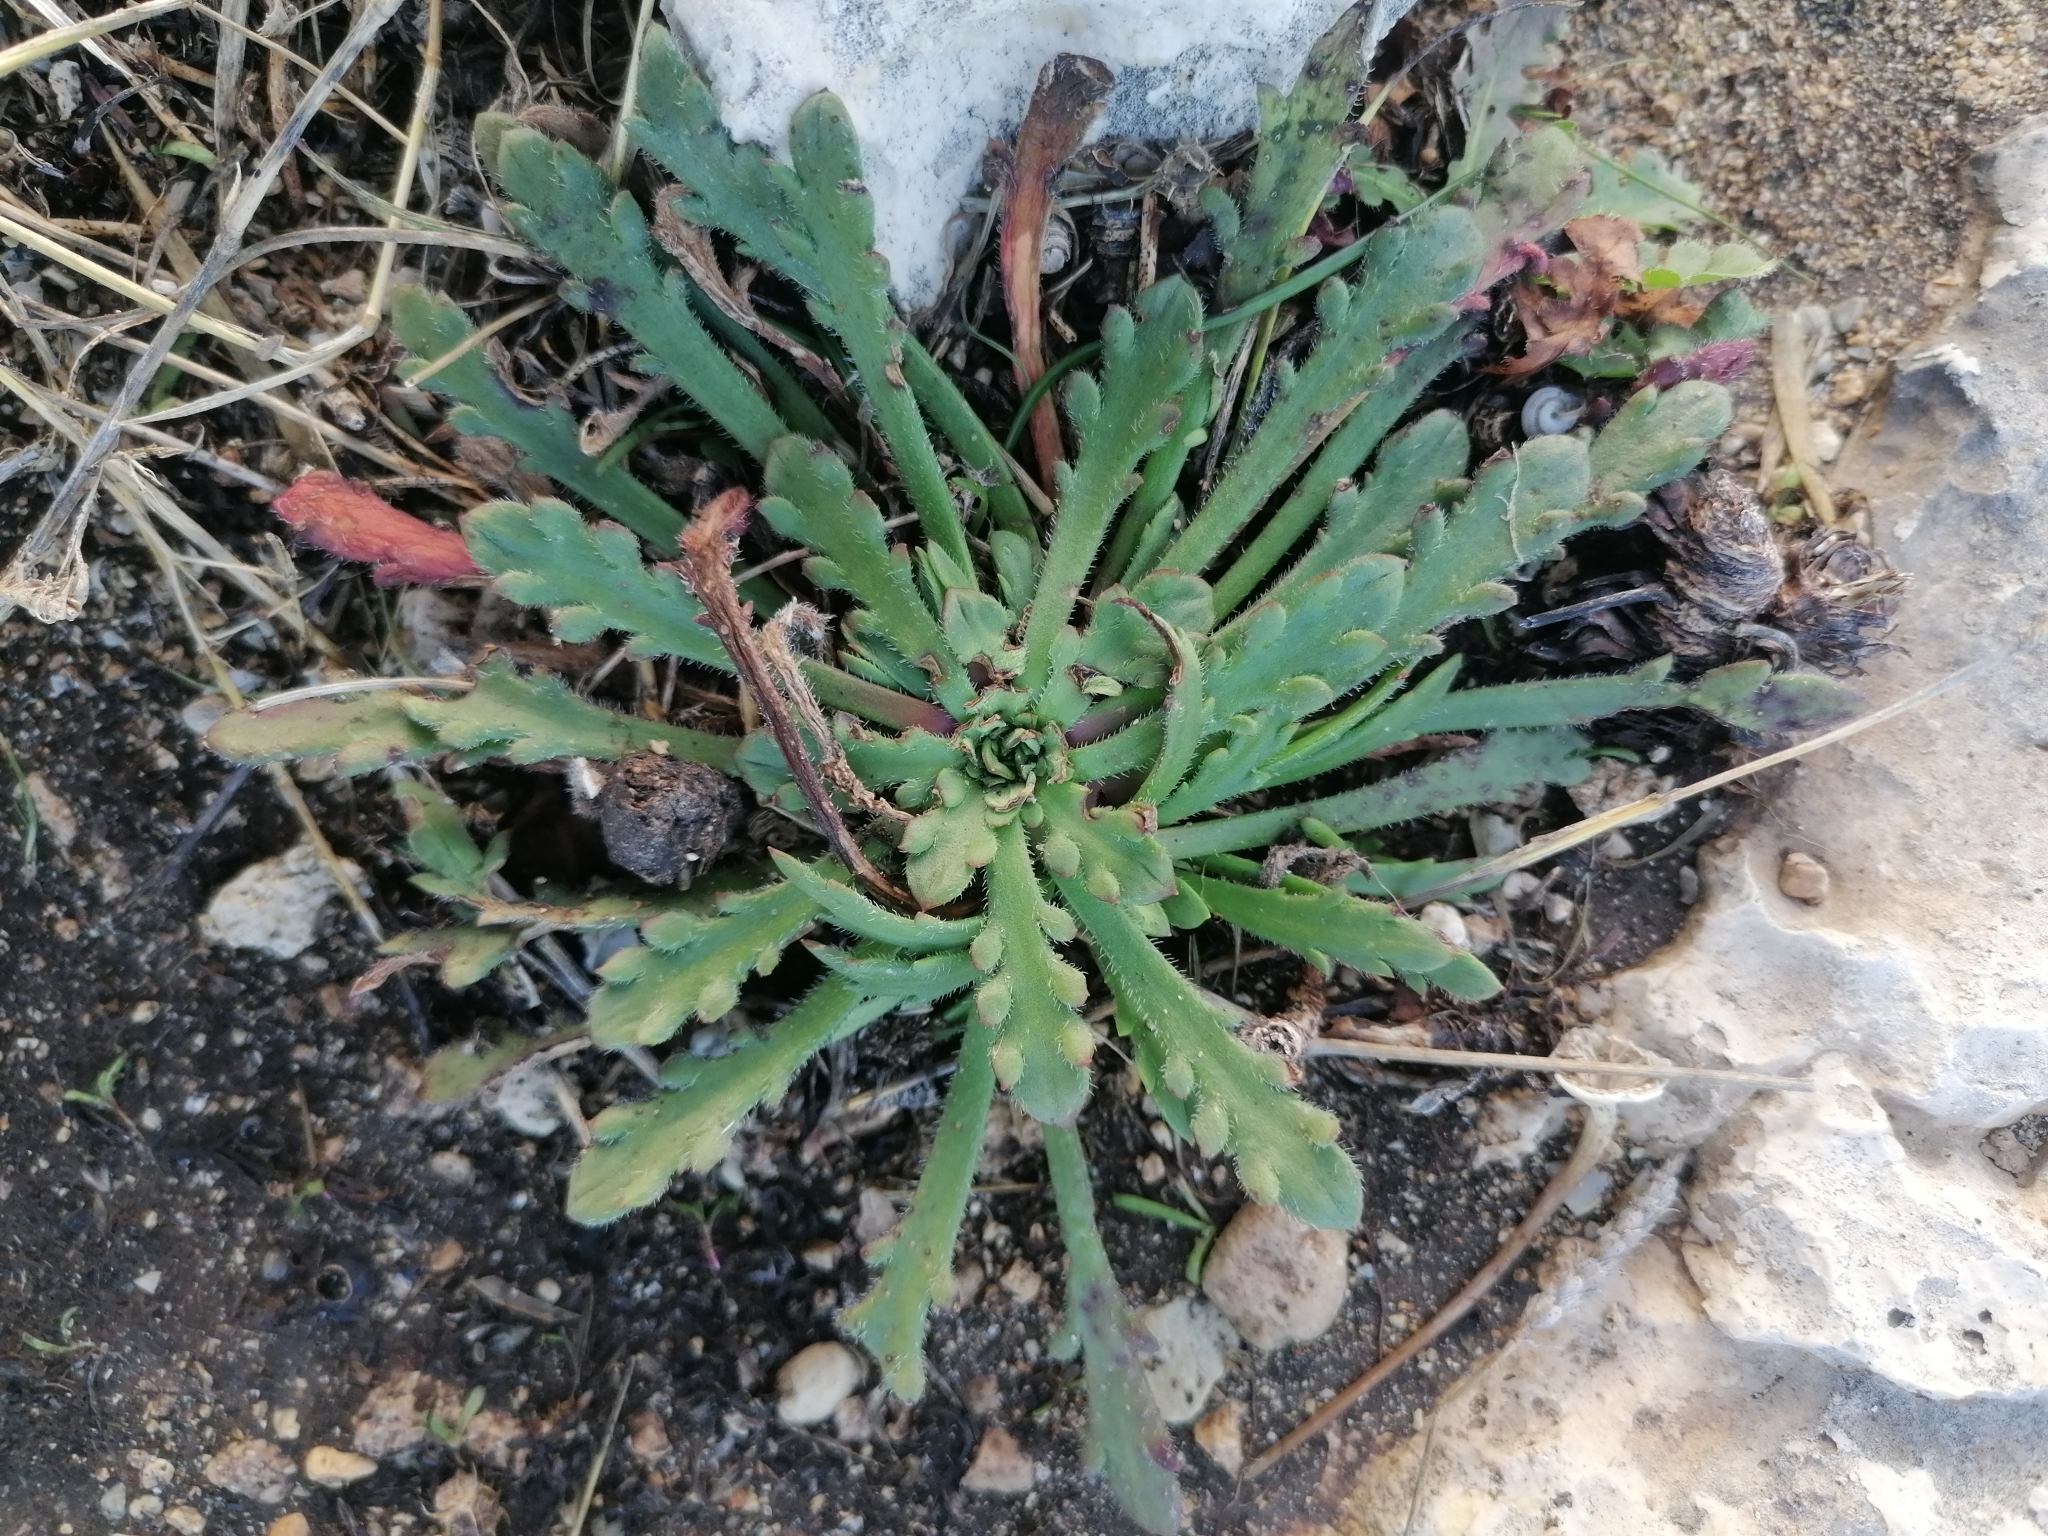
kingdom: Plantae
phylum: Tracheophyta
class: Magnoliopsida
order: Lamiales
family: Plantaginaceae
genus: Plantago
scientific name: Plantago coronopus
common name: Buck's-horn plantain
